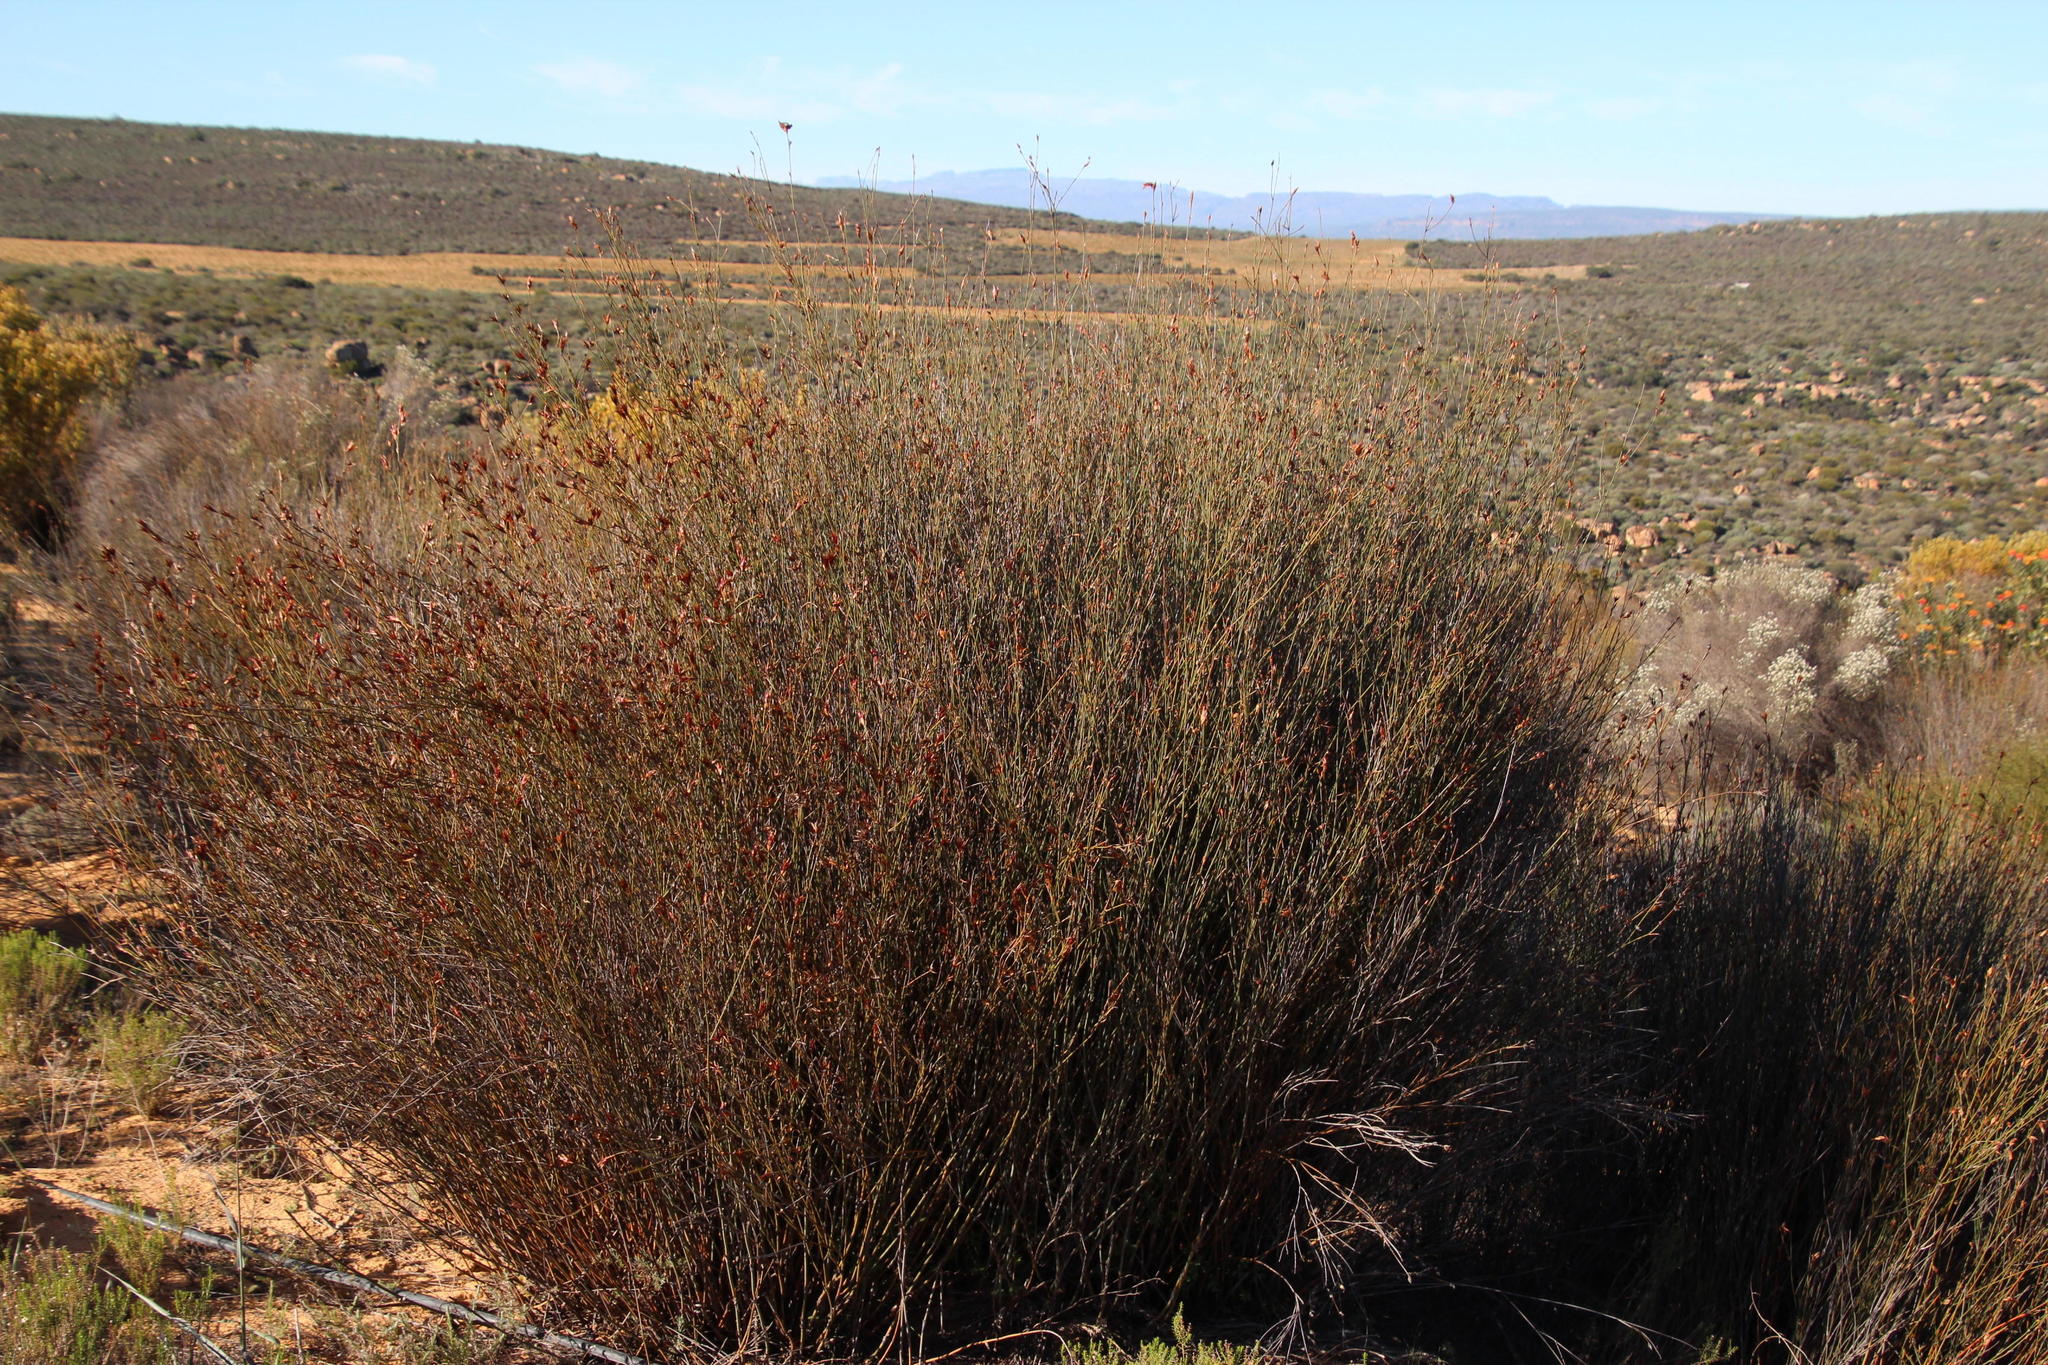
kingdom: Plantae
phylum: Tracheophyta
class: Liliopsida
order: Poales
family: Restionaceae
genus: Willdenowia
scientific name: Willdenowia incurvata
